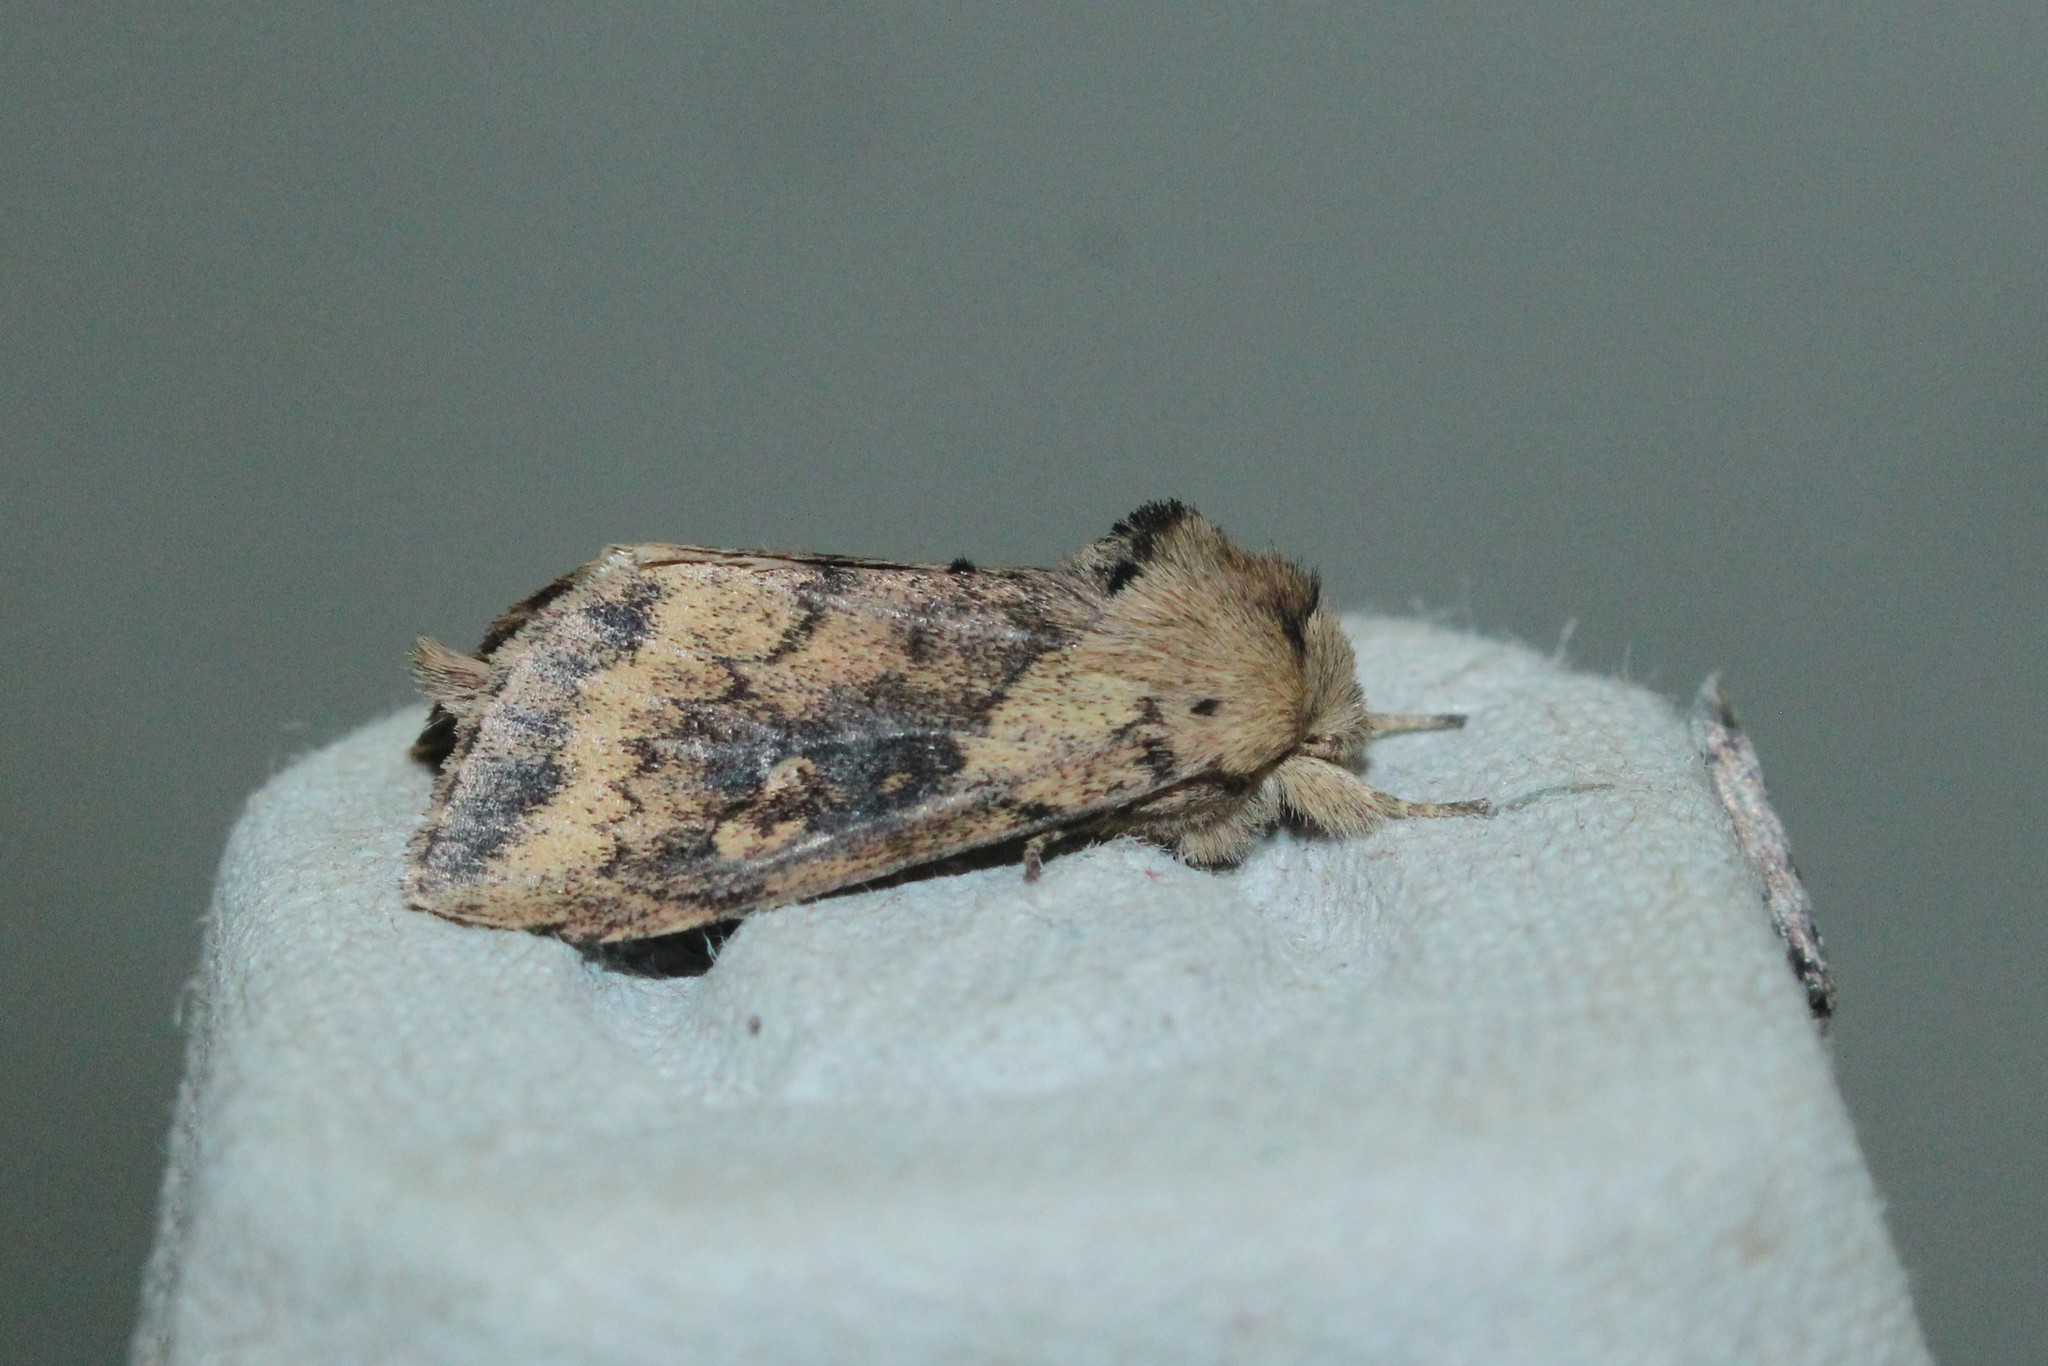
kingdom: Animalia
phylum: Arthropoda
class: Insecta
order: Lepidoptera
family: Noctuidae
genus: Bellura
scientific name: Bellura vulnifica
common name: Black-tailed diver moth
